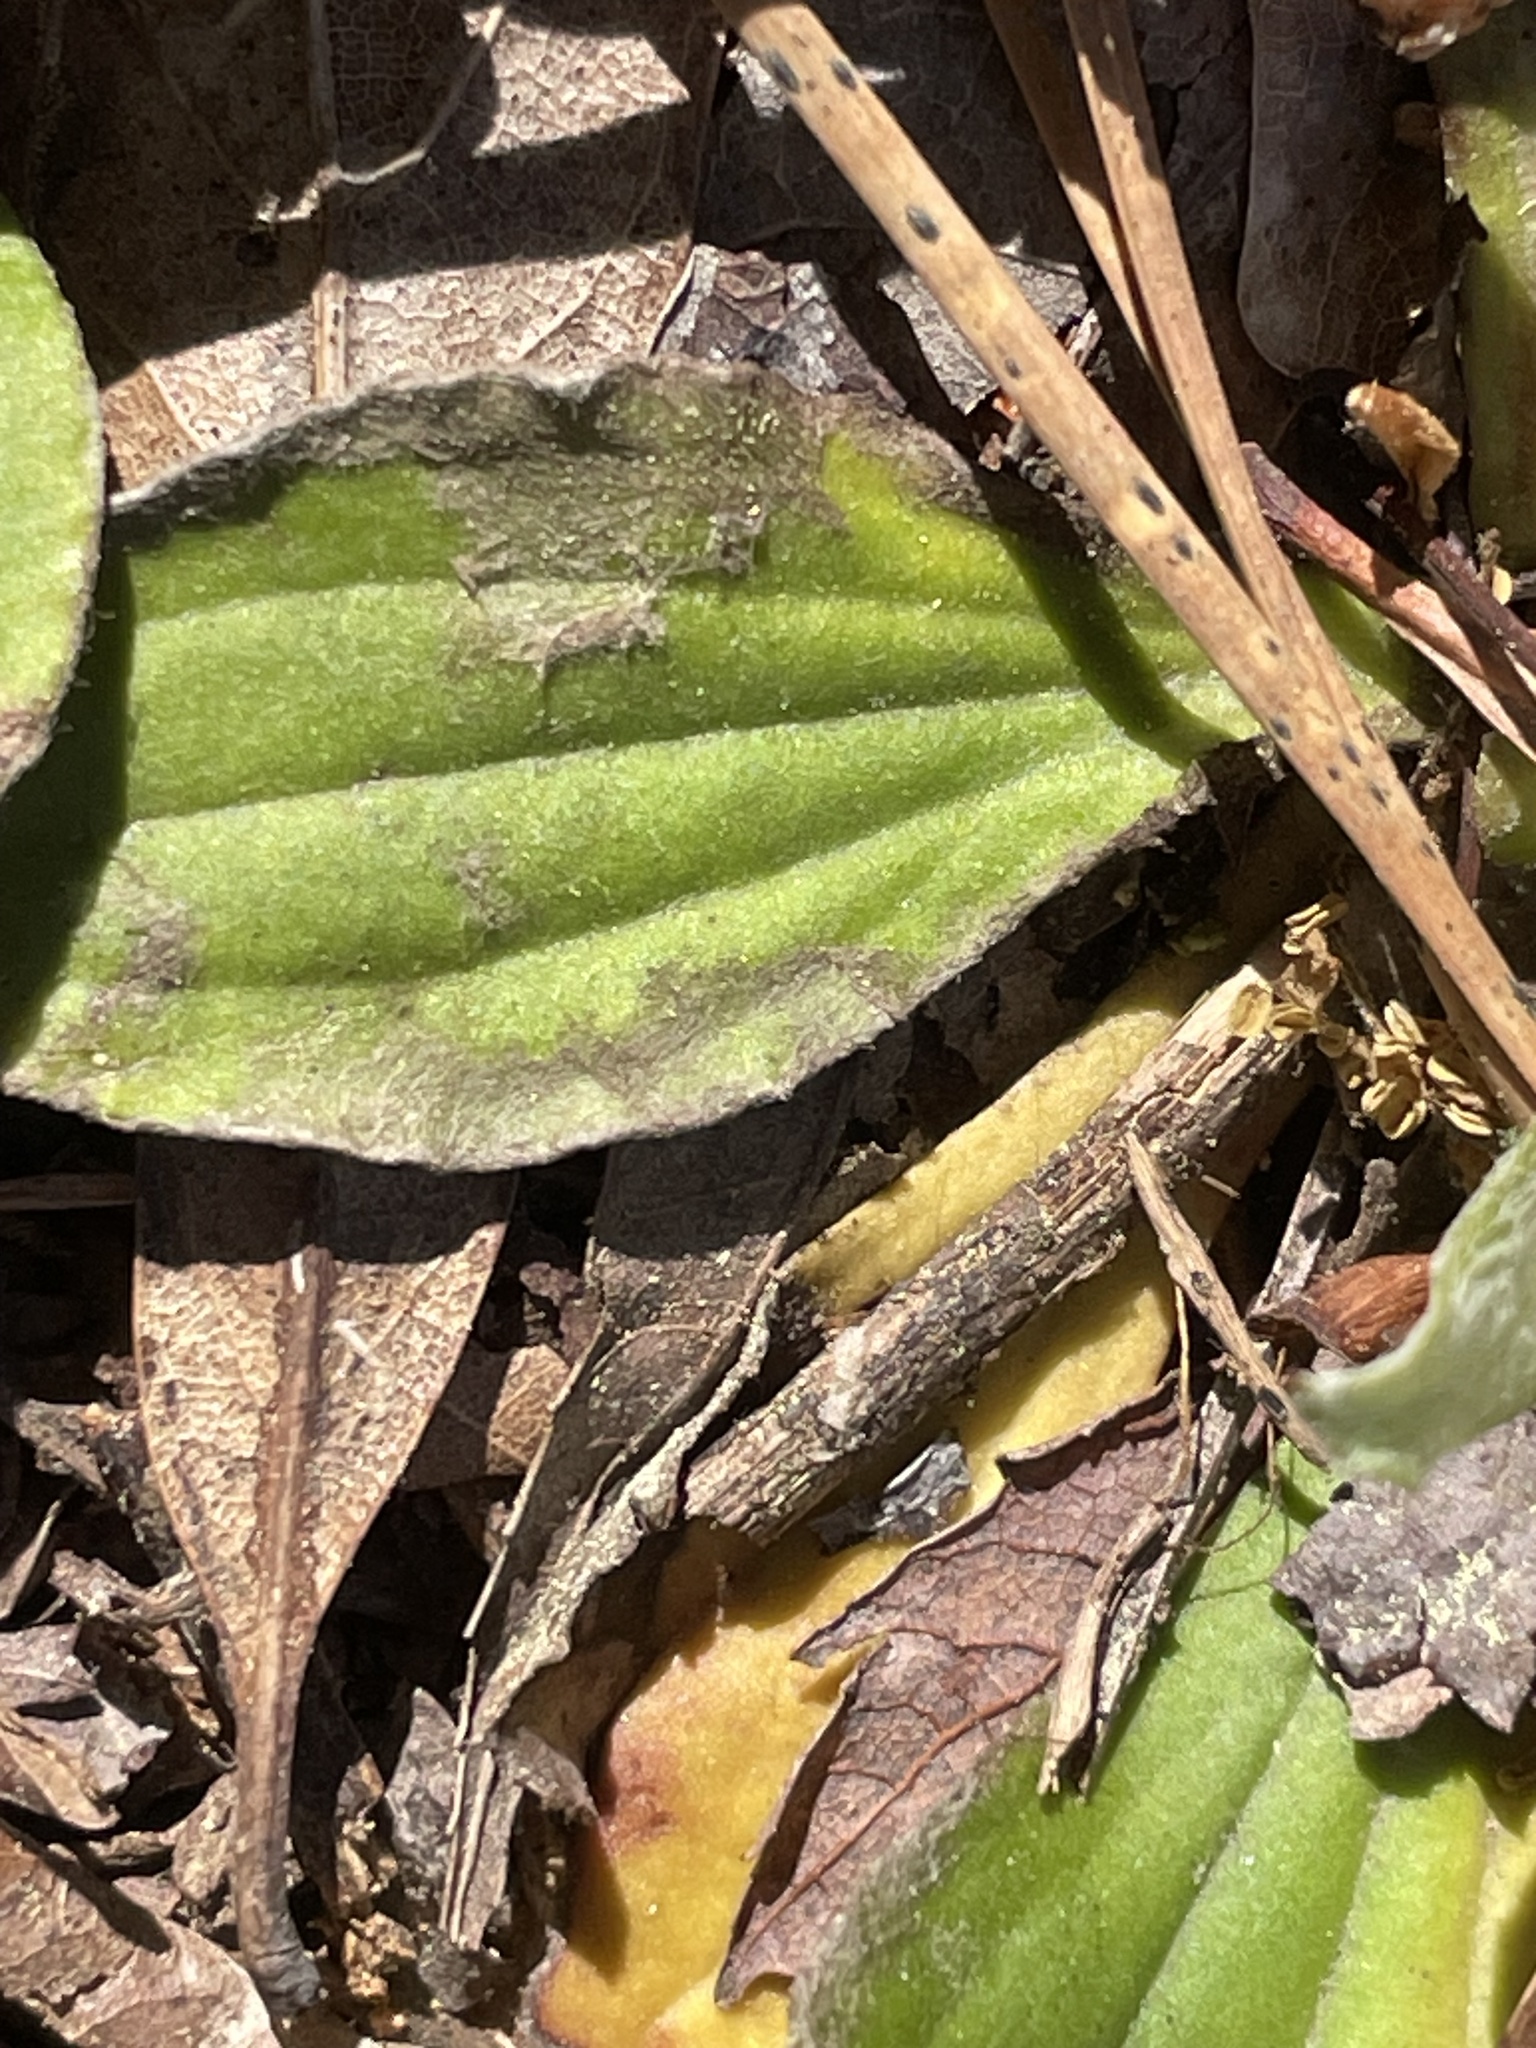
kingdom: Plantae
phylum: Tracheophyta
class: Magnoliopsida
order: Asterales
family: Asteraceae
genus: Antennaria
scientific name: Antennaria parlinii
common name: Parlin's pussytoes
